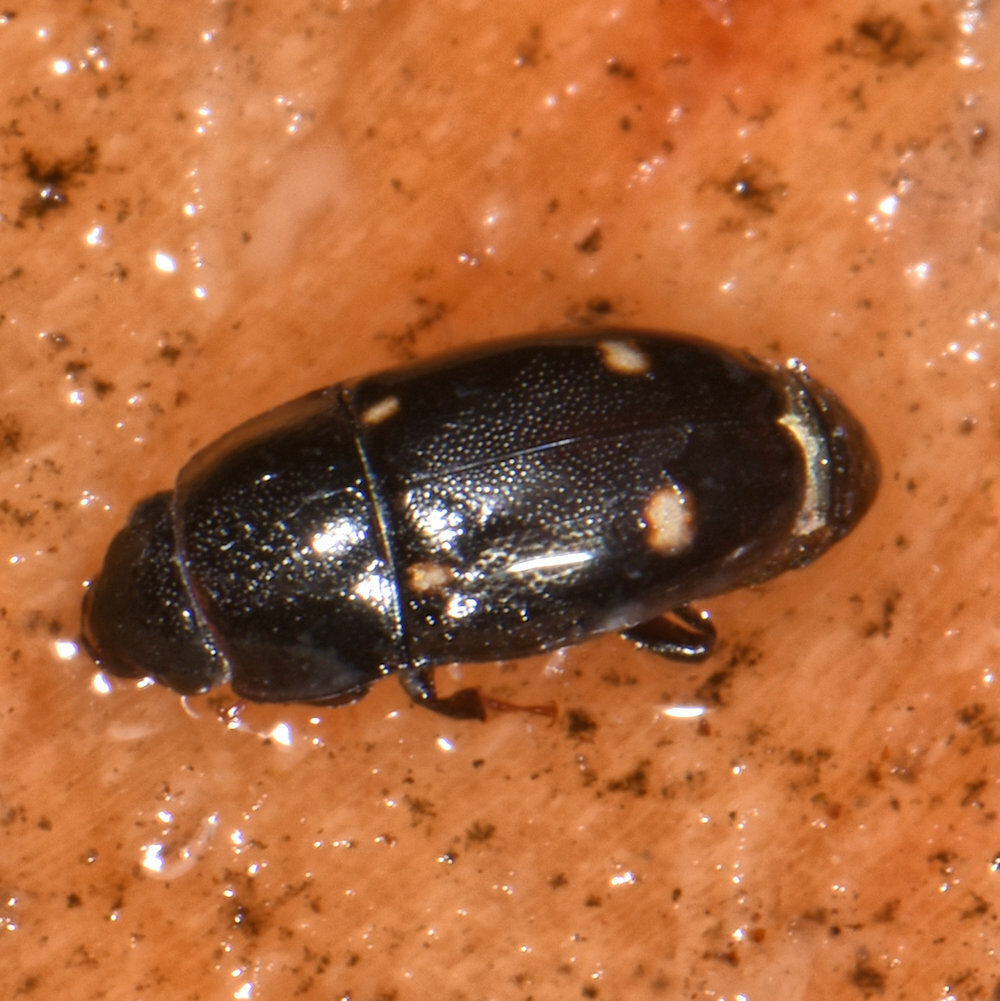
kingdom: Animalia
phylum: Arthropoda
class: Insecta
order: Coleoptera
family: Nitidulidae
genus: Glischrochilus
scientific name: Glischrochilus siepmanni
